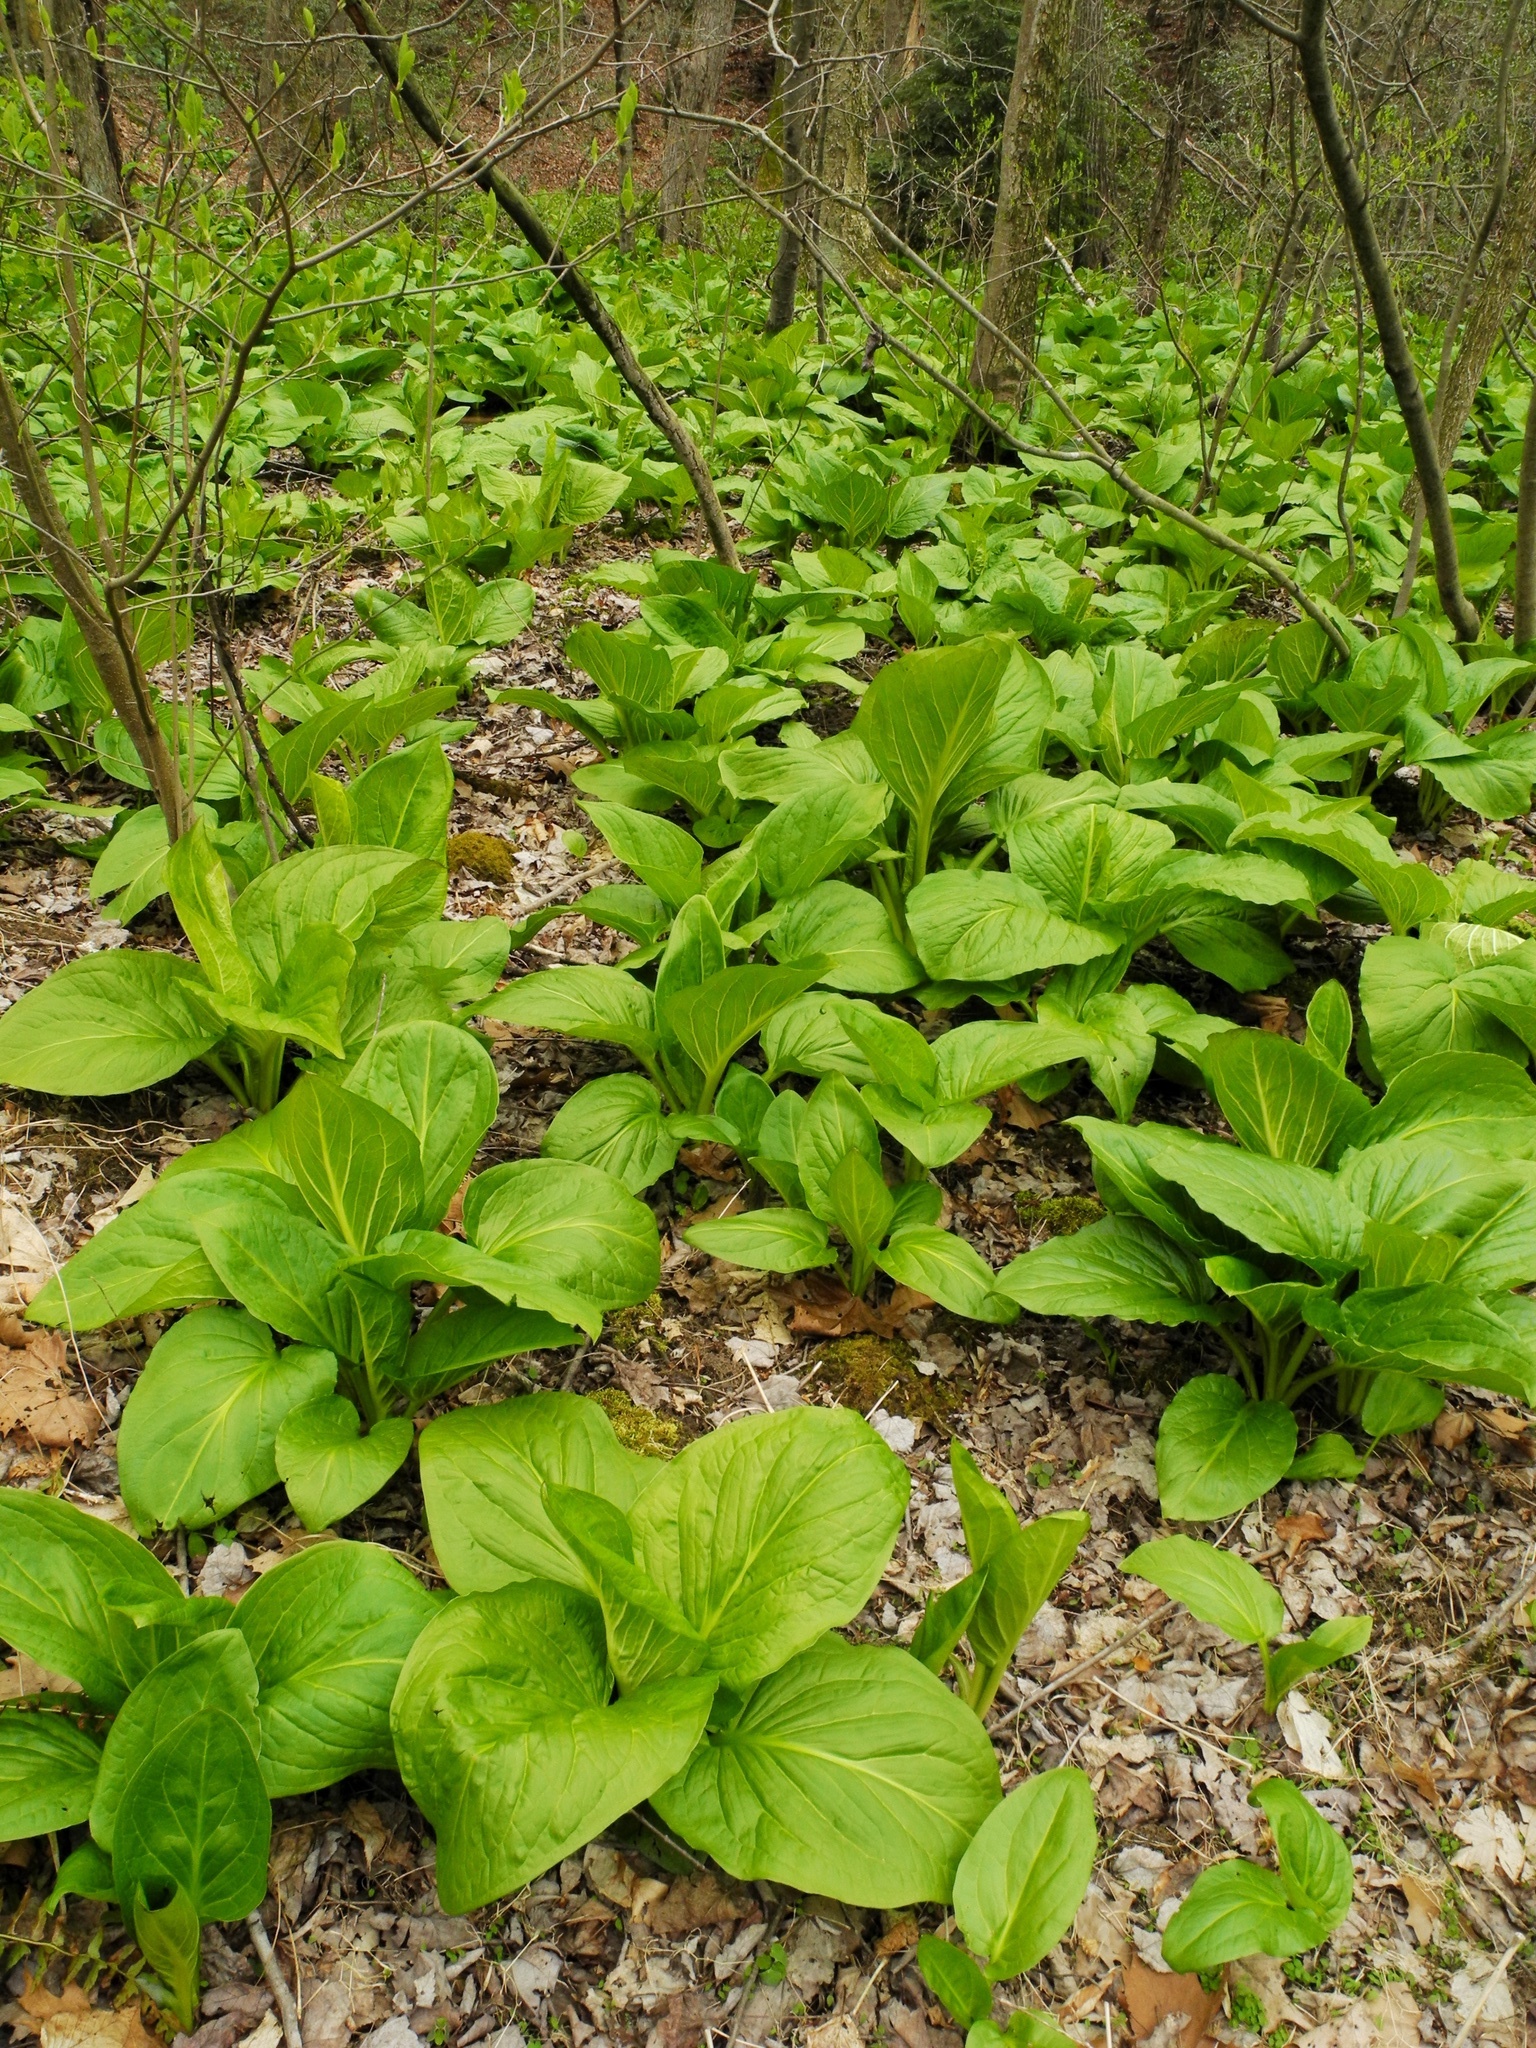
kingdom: Plantae
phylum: Tracheophyta
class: Liliopsida
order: Alismatales
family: Araceae
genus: Symplocarpus
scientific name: Symplocarpus foetidus
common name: Eastern skunk cabbage
